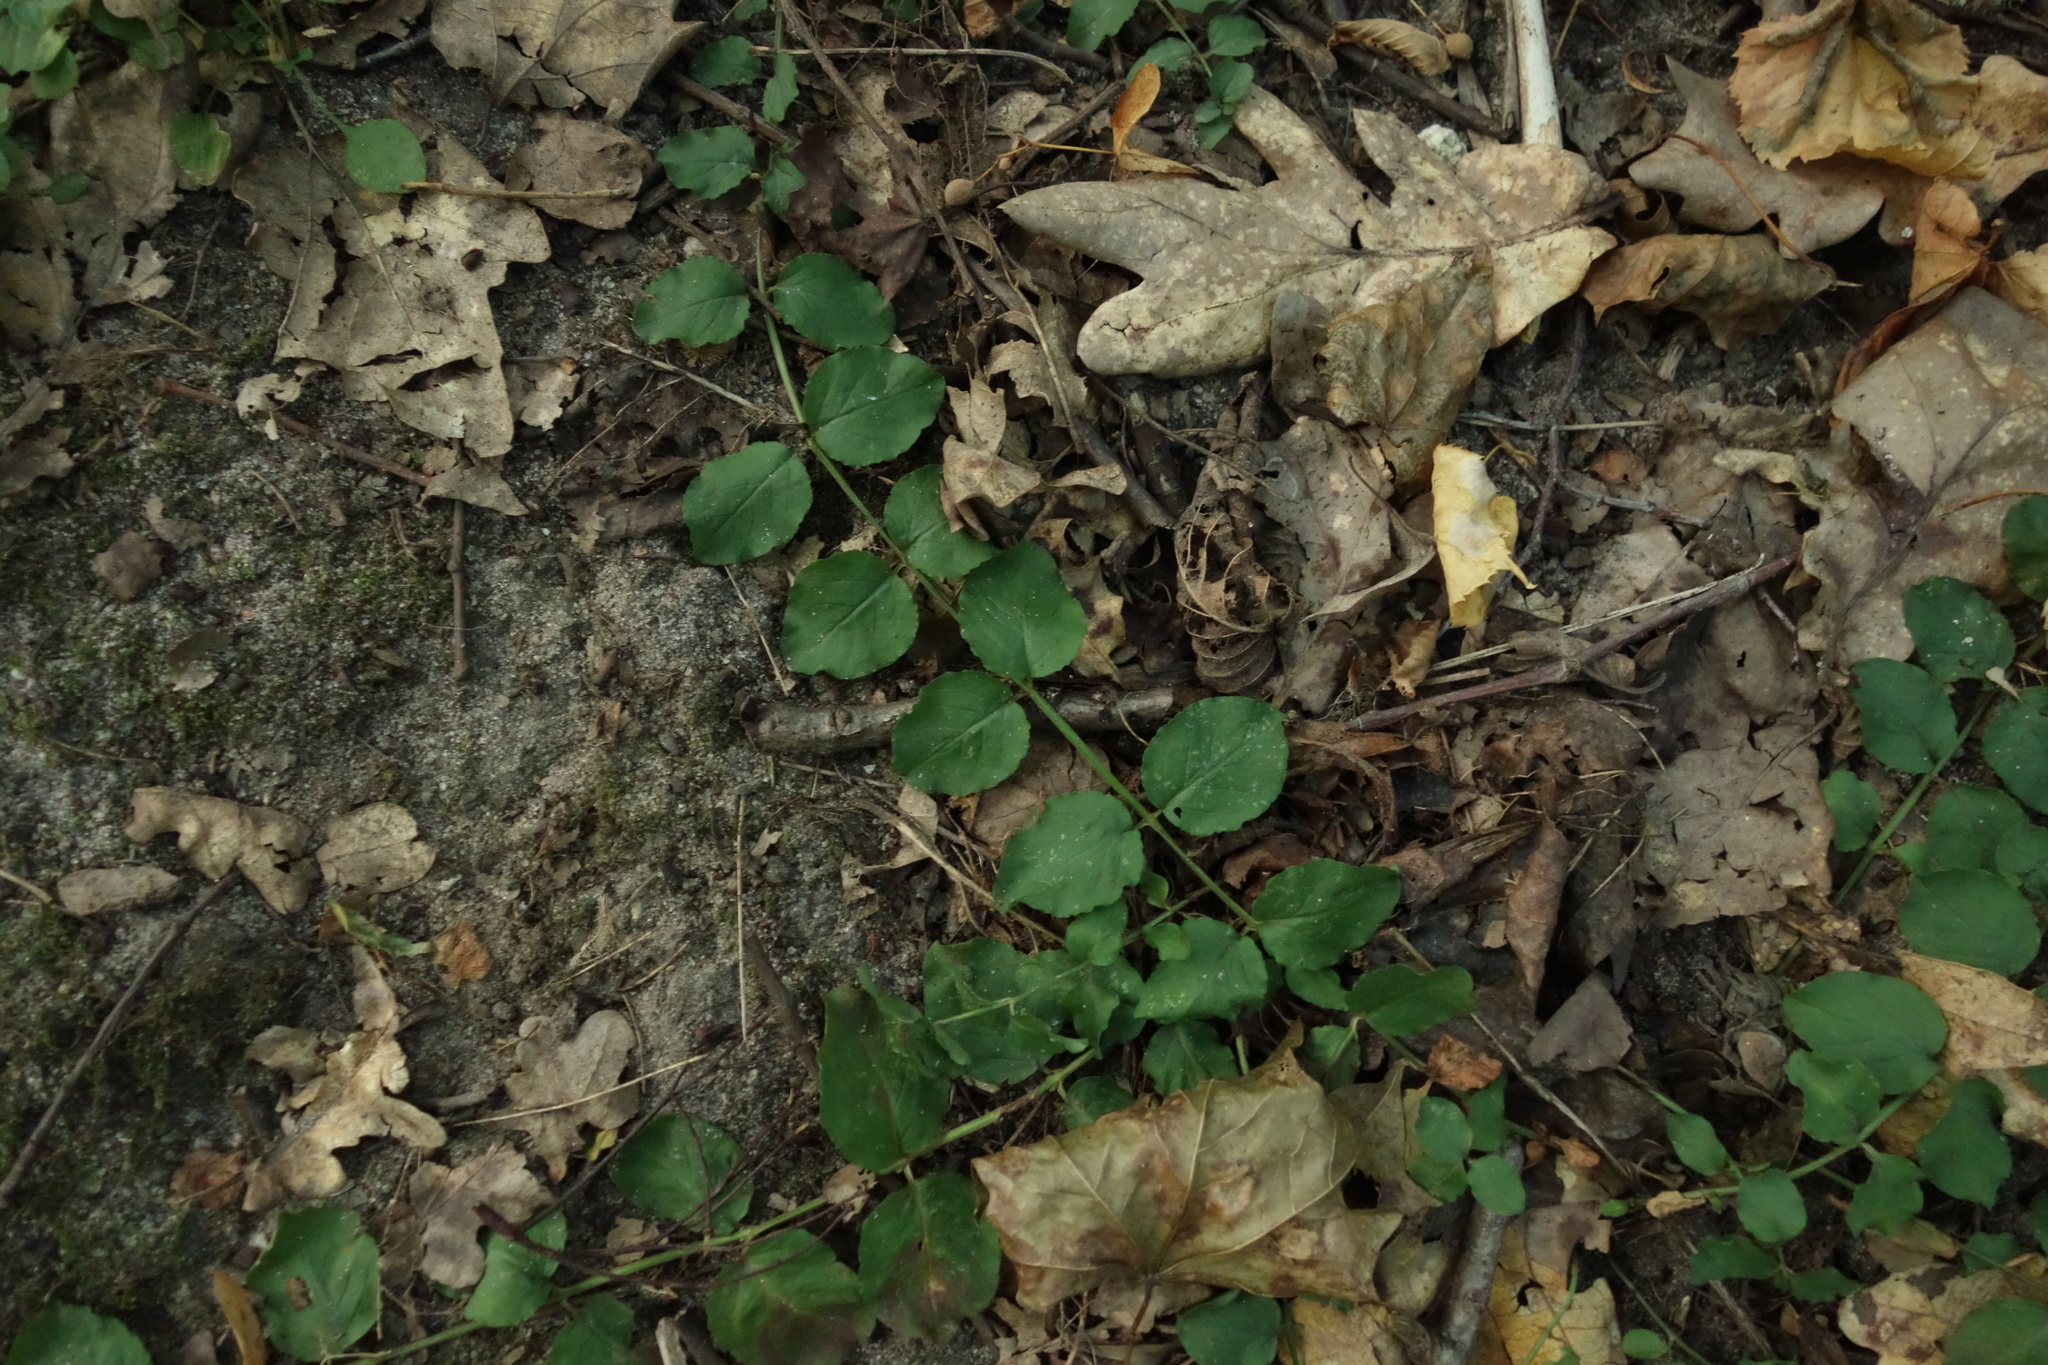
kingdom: Plantae
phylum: Tracheophyta
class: Magnoliopsida
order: Ericales
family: Primulaceae
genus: Lysimachia
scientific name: Lysimachia nummularia
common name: Moneywort
